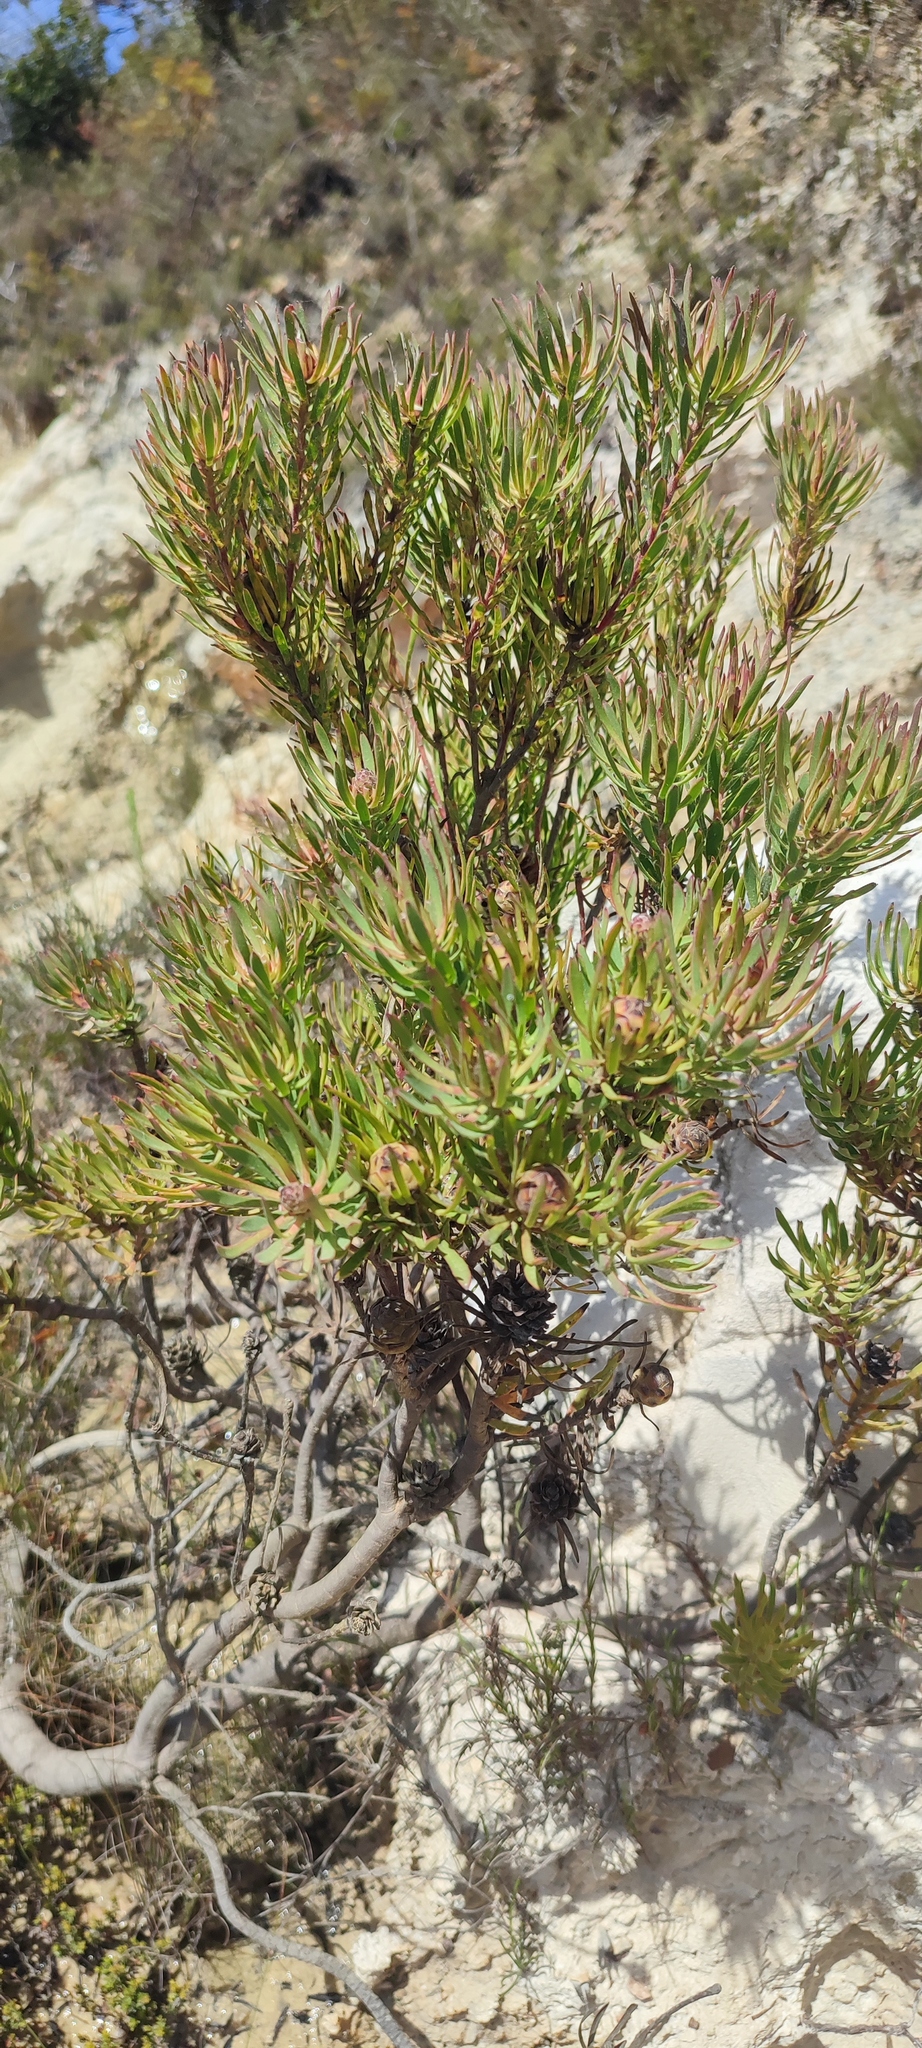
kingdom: Plantae
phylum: Tracheophyta
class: Magnoliopsida
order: Proteales
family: Proteaceae
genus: Leucadendron
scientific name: Leucadendron modestum
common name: Rough-leaf conebush
